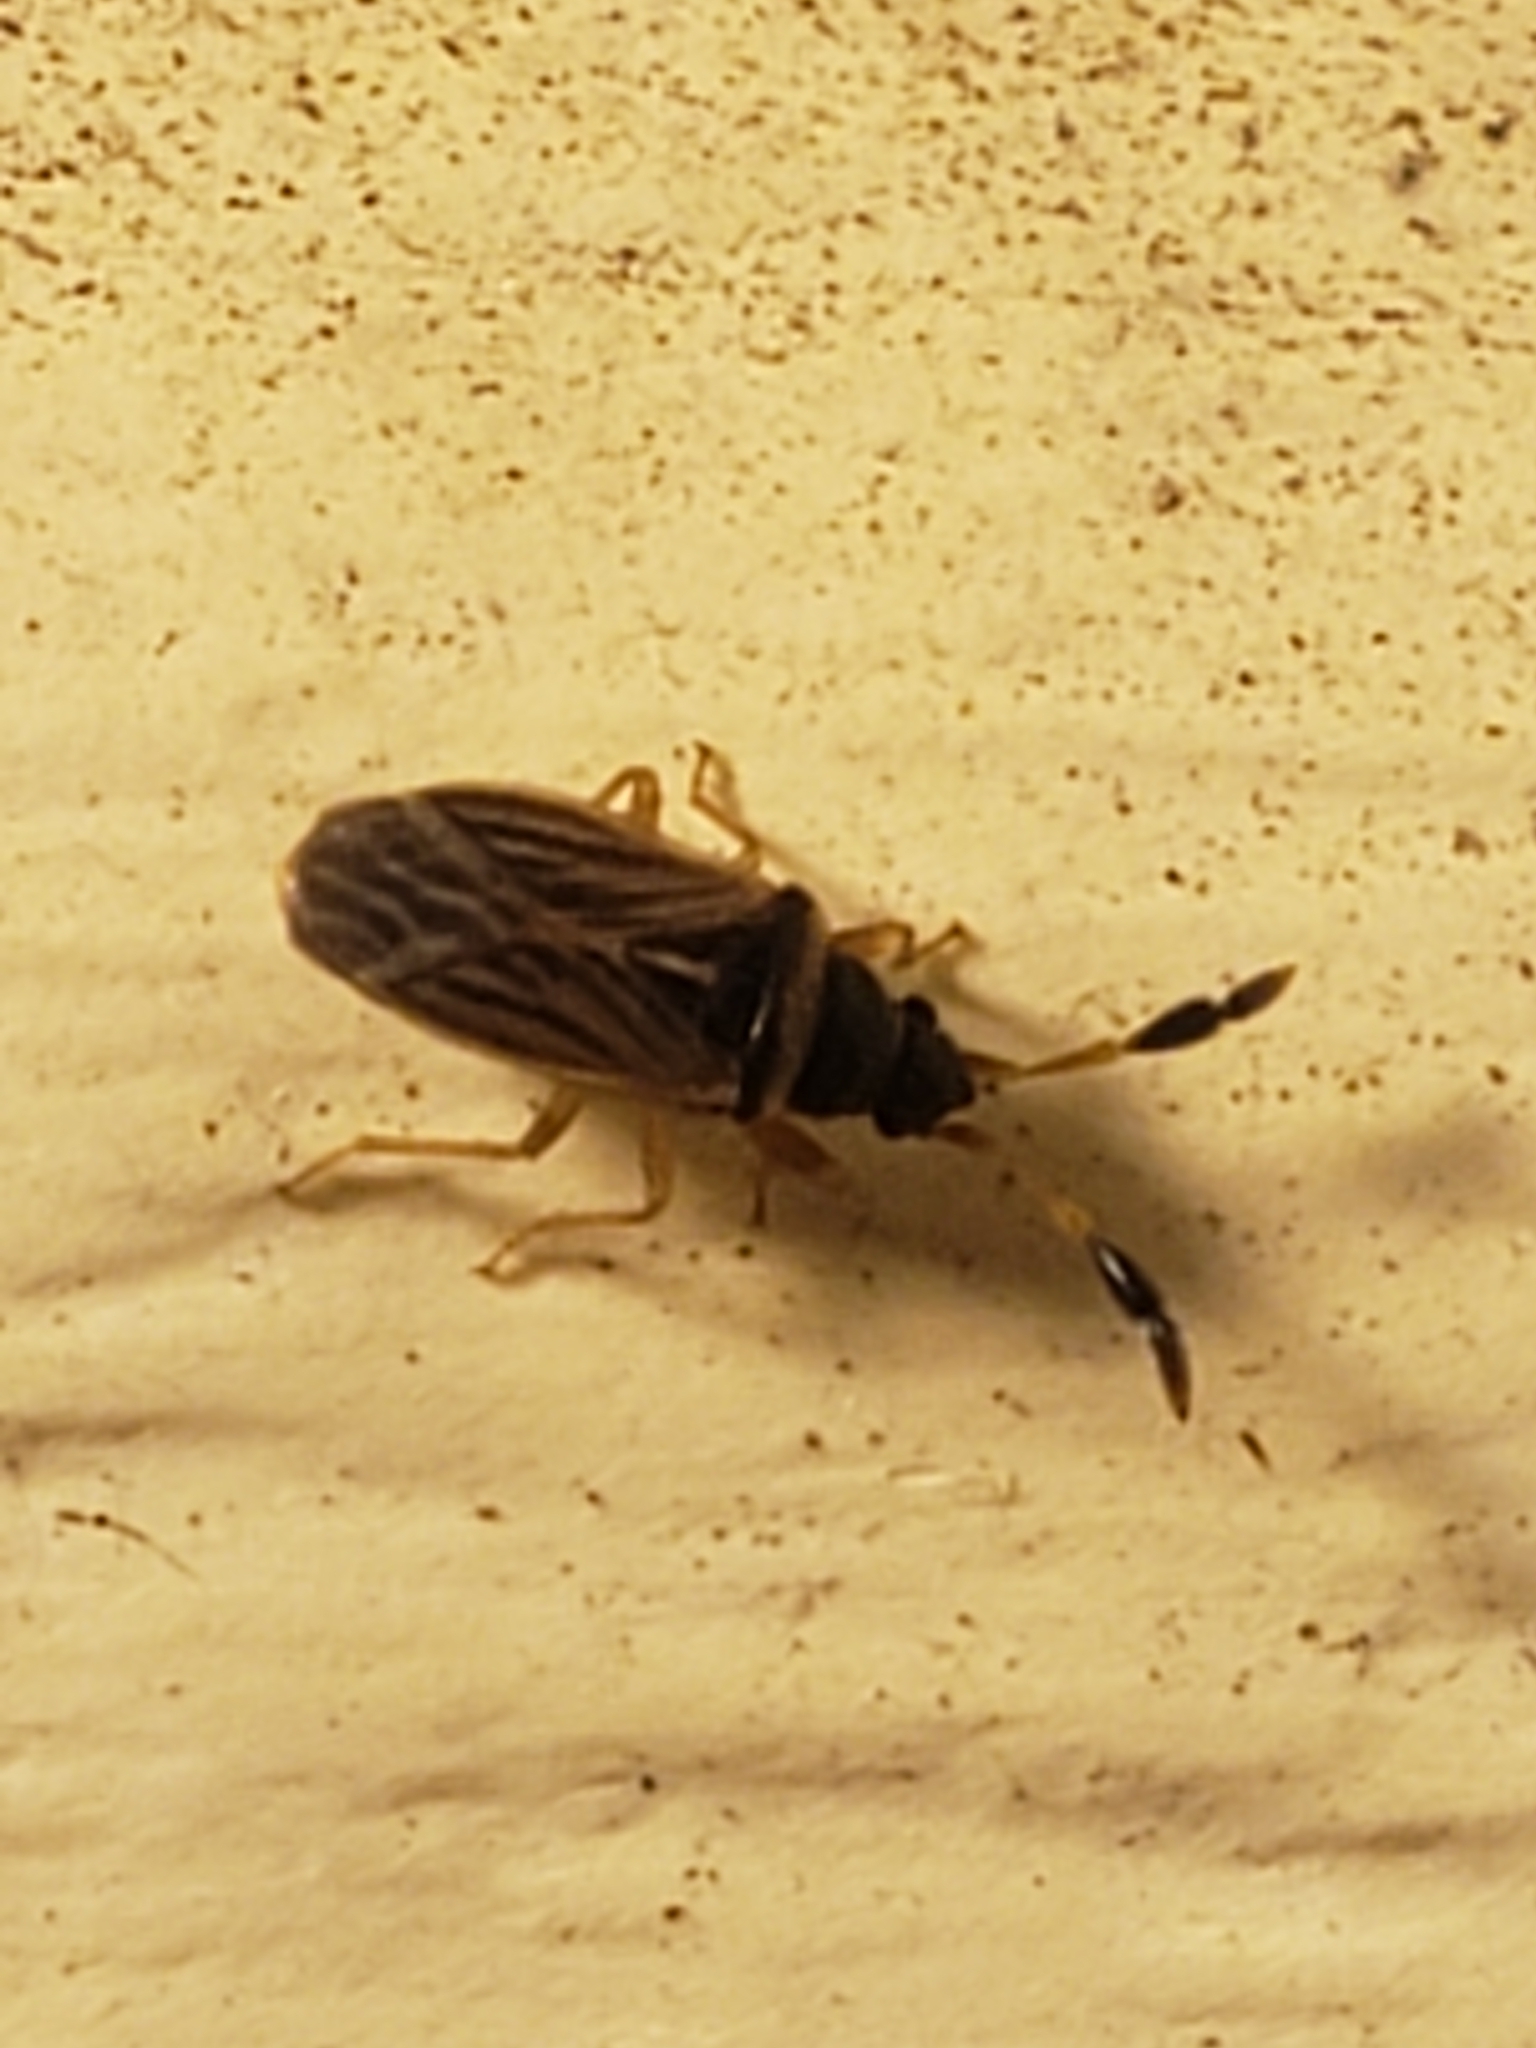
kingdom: Animalia
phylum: Arthropoda
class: Insecta
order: Hemiptera
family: Rhyparochromidae
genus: Ptochiomera
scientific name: Ptochiomera nodosa
